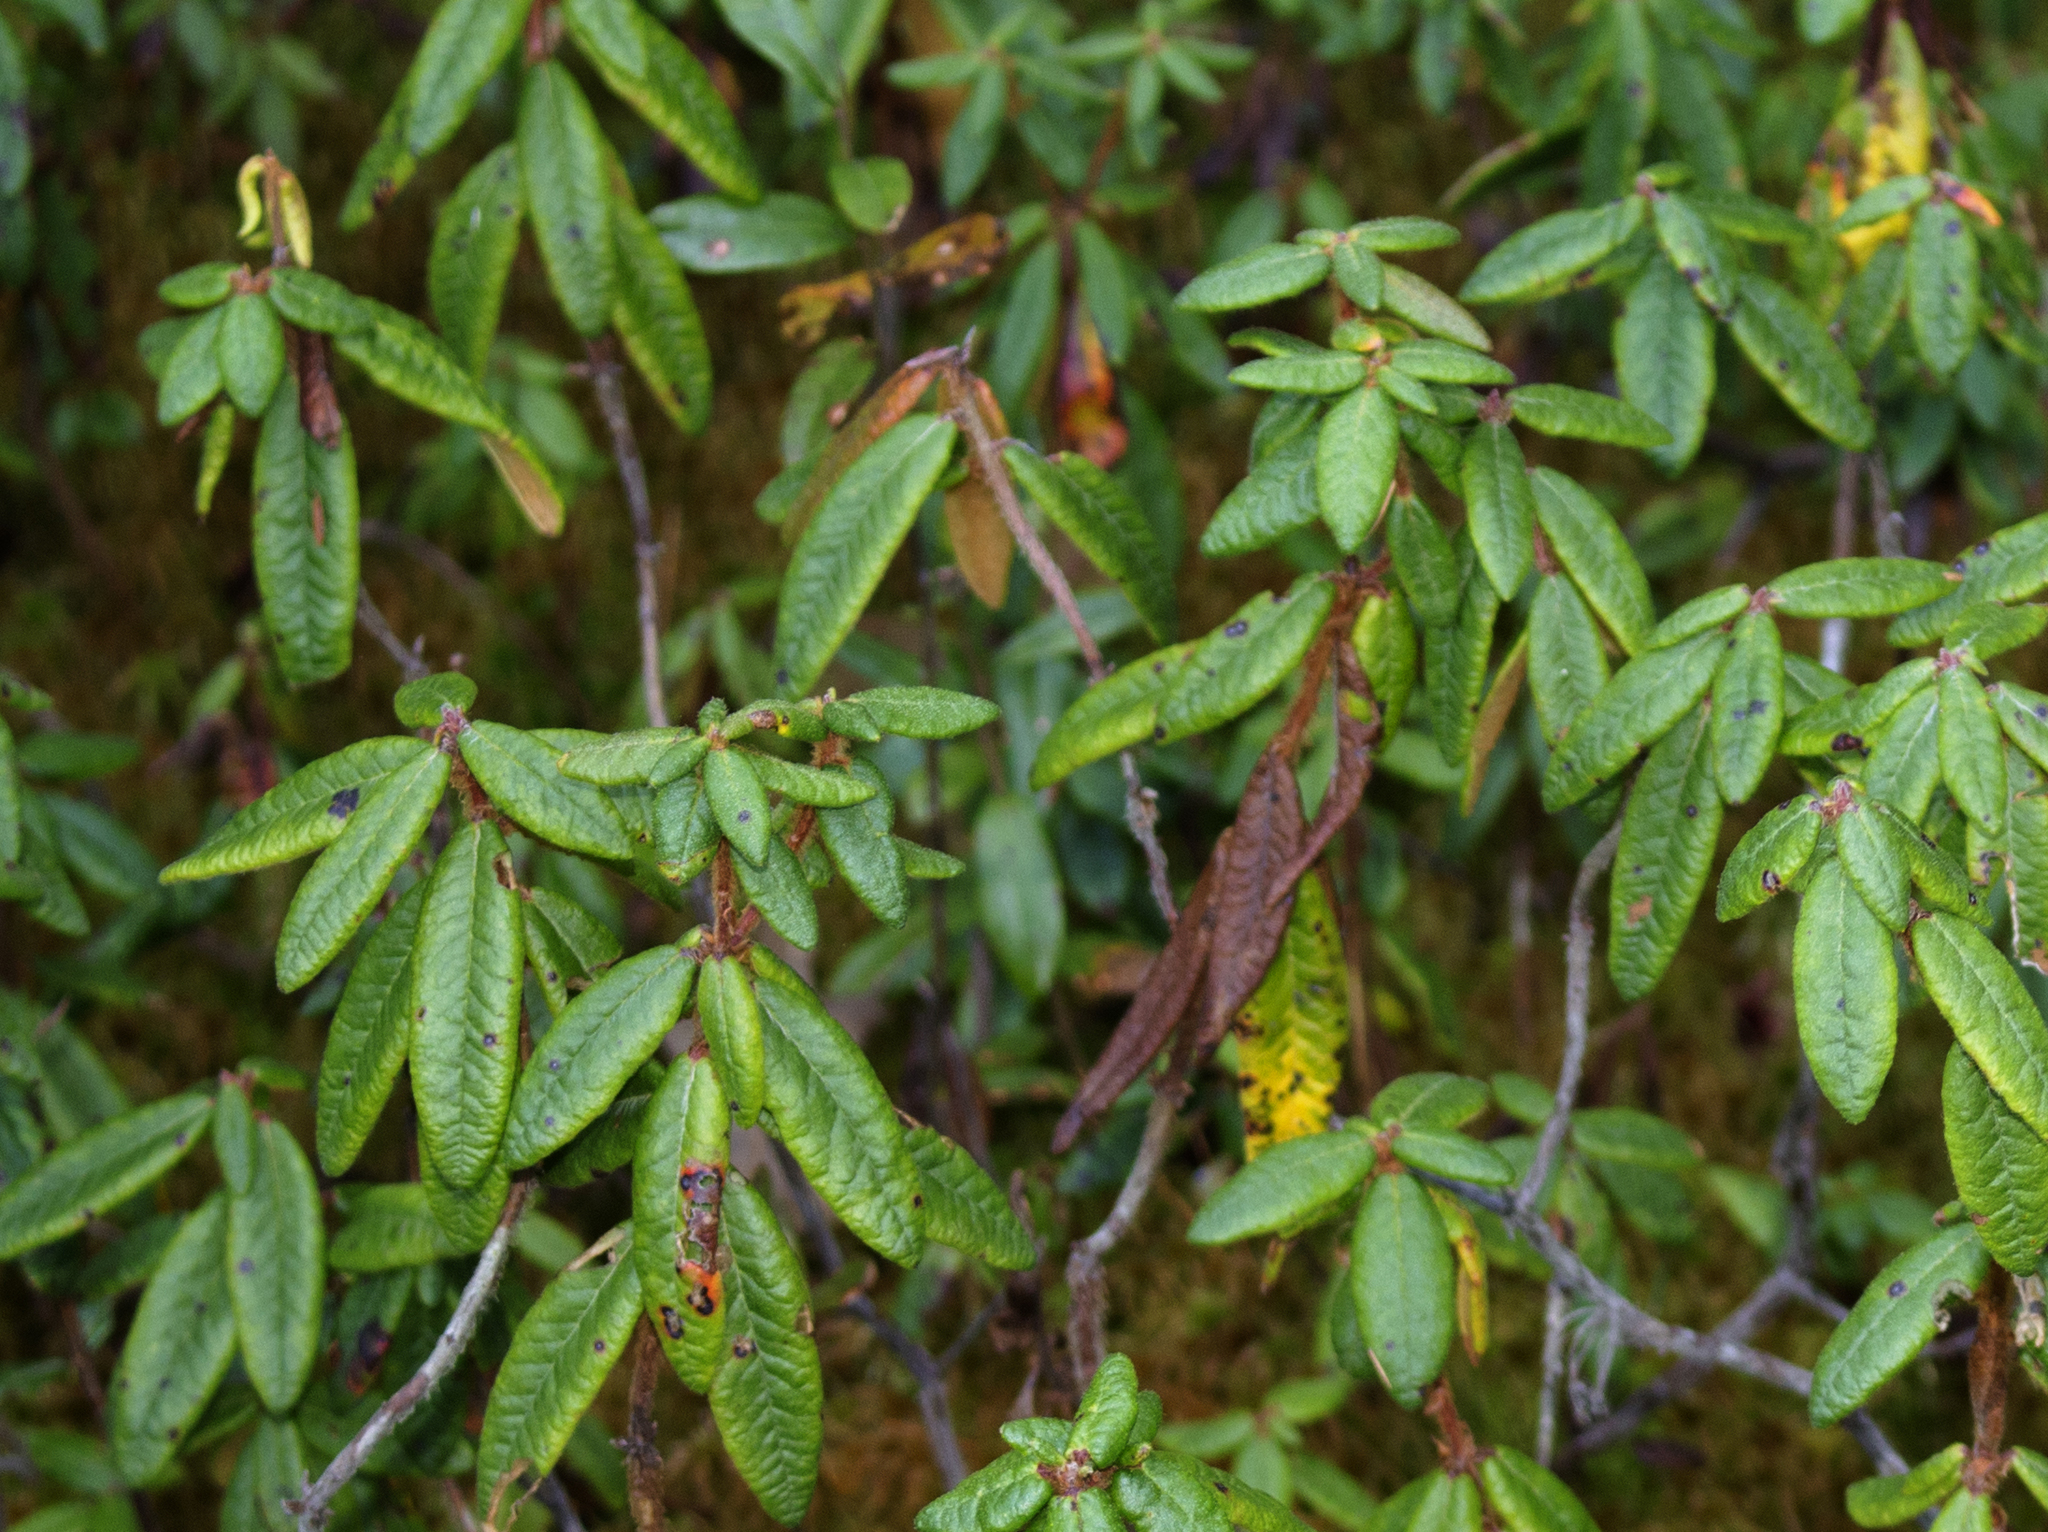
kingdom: Plantae
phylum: Tracheophyta
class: Magnoliopsida
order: Ericales
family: Ericaceae
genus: Rhododendron
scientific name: Rhododendron groenlandicum
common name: Bog labrador tea
